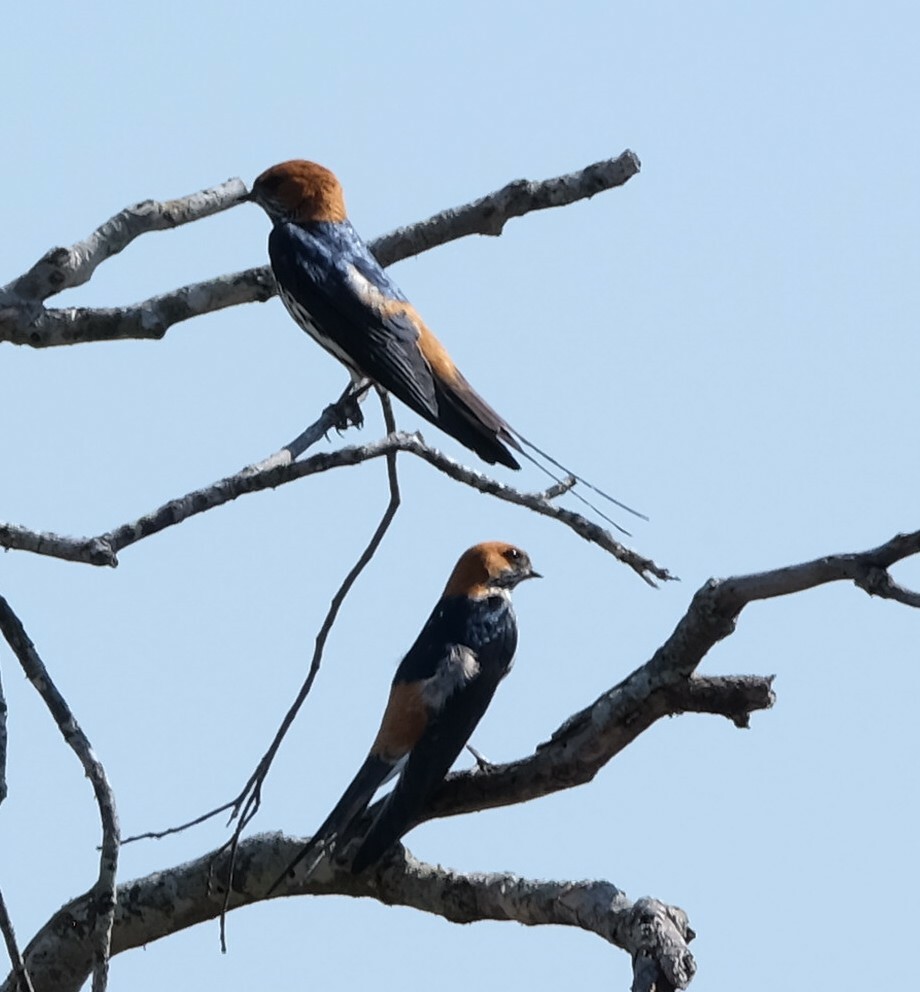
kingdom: Animalia
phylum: Chordata
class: Aves
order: Passeriformes
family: Hirundinidae
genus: Cecropis
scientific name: Cecropis abyssinica
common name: Lesser striped-swallow
